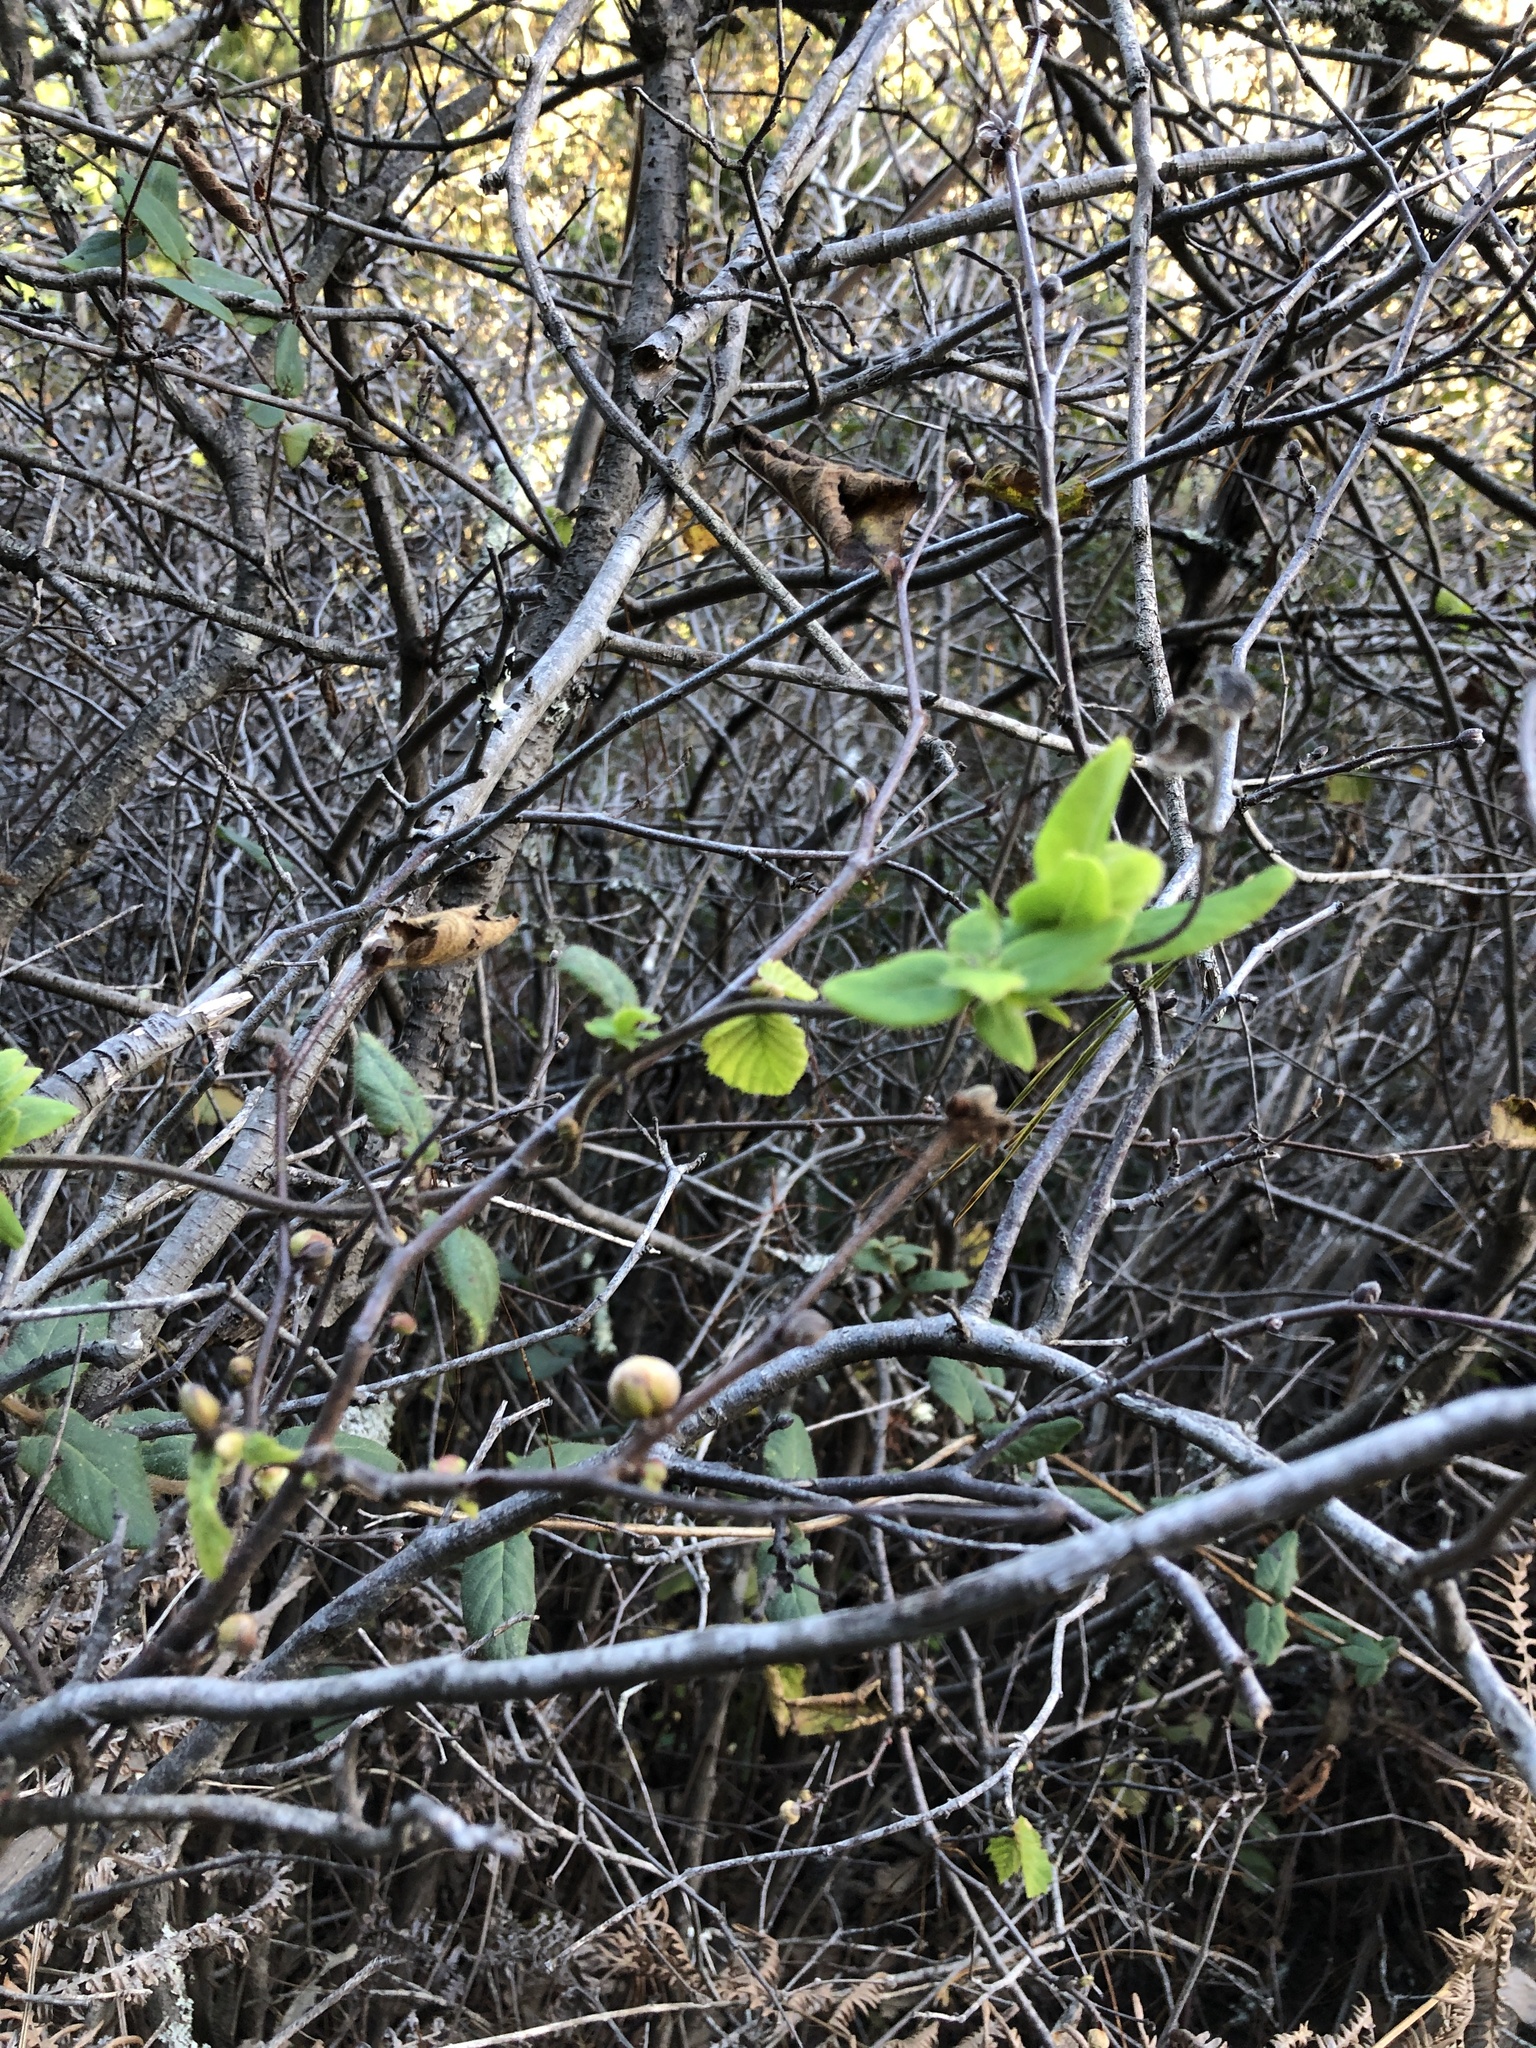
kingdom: Plantae
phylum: Tracheophyta
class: Magnoliopsida
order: Fagales
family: Betulaceae
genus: Corylus
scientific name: Corylus cornuta
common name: Beaked hazel
